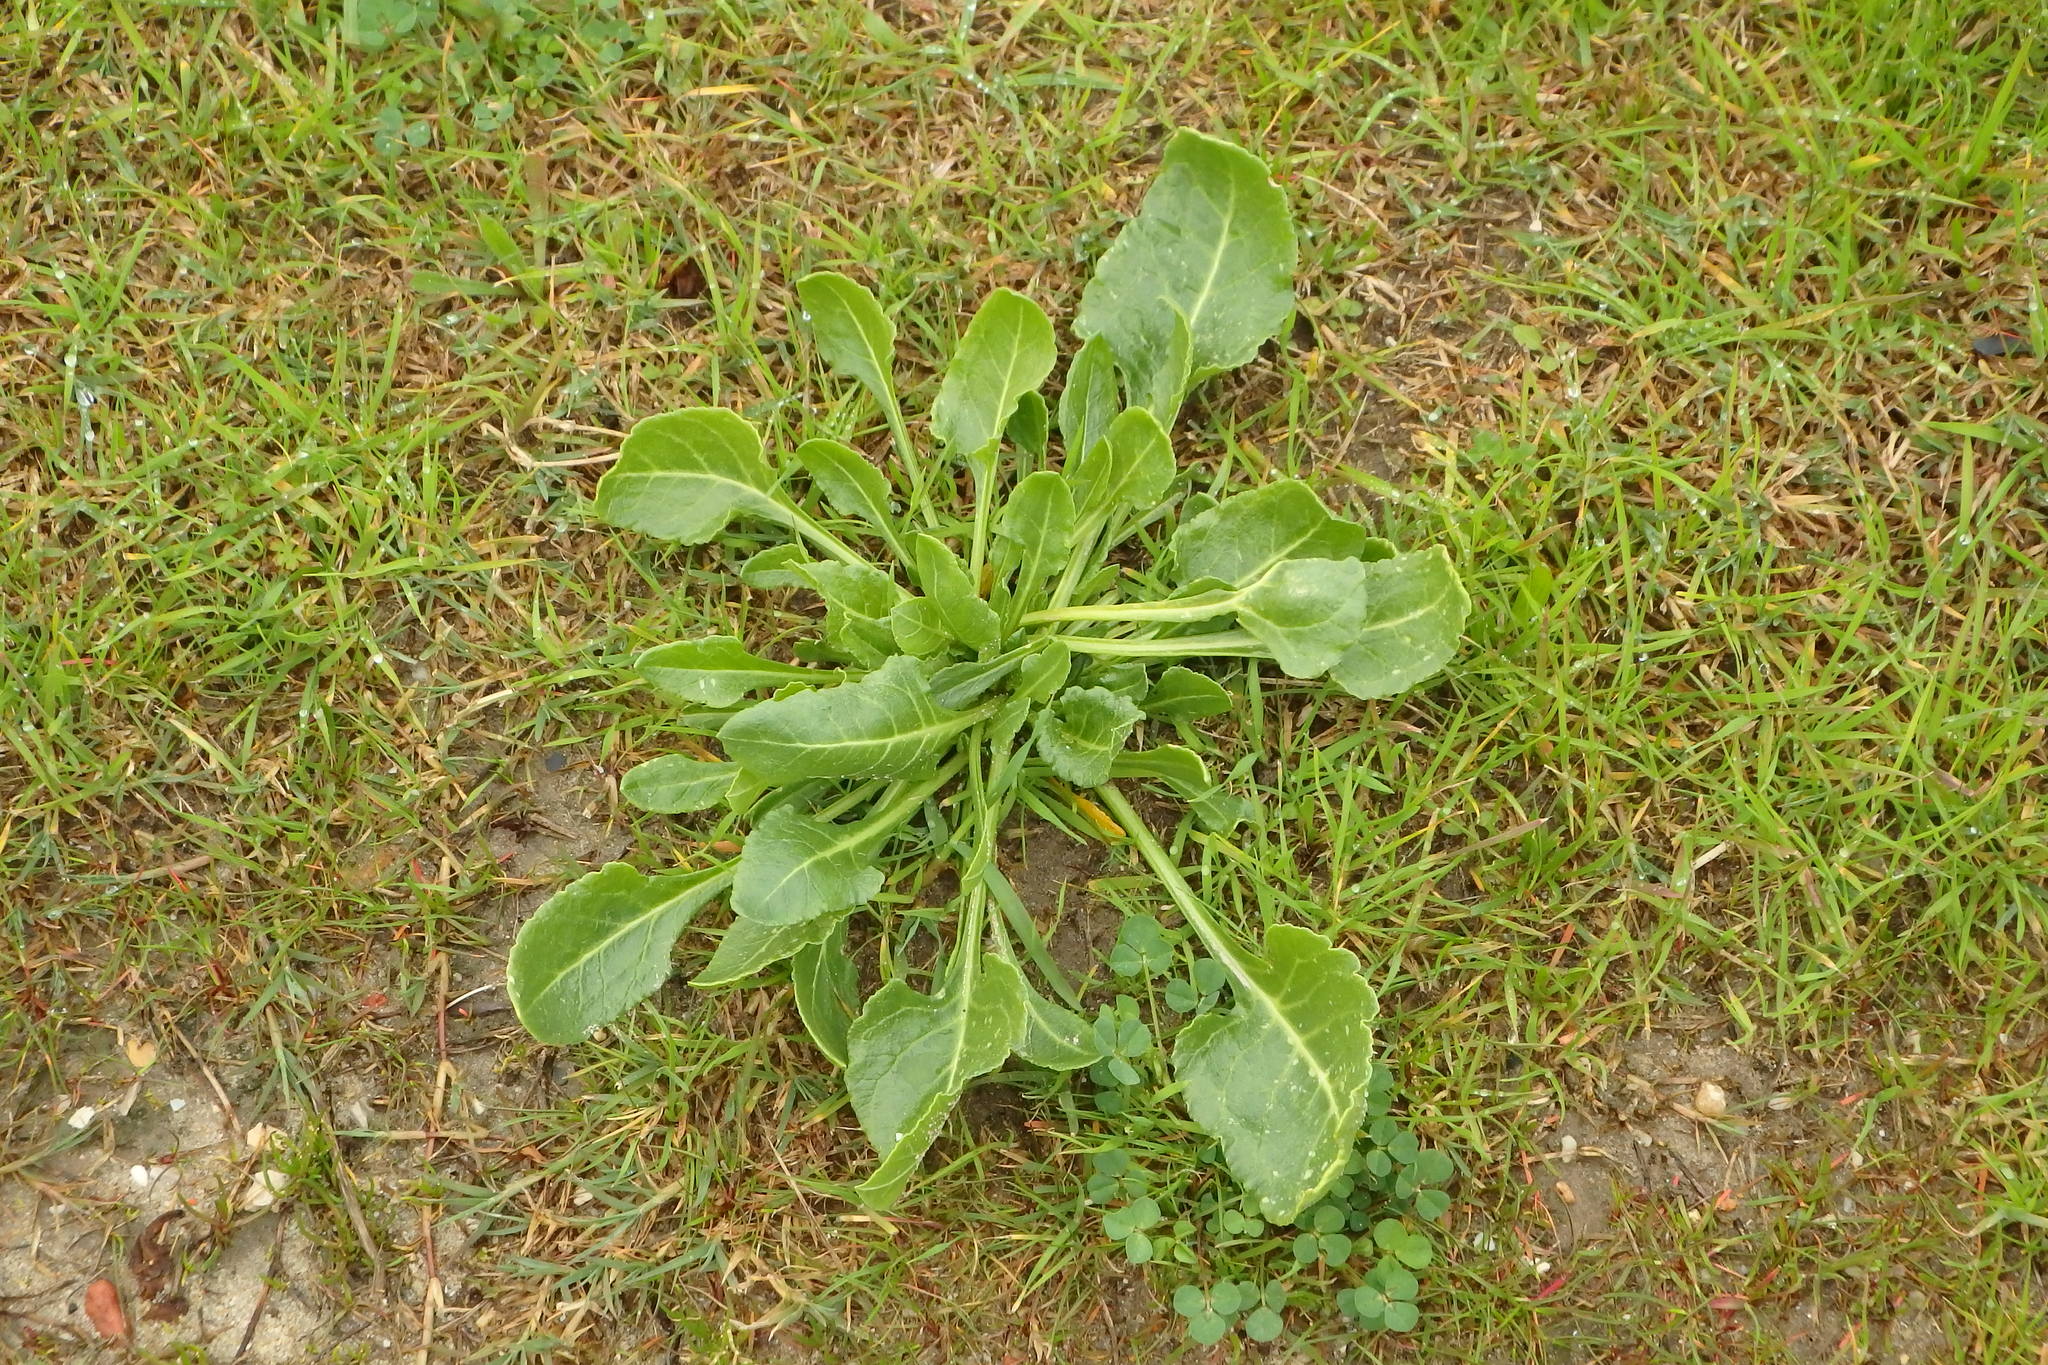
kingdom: Plantae
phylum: Tracheophyta
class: Magnoliopsida
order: Caryophyllales
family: Amaranthaceae
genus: Beta
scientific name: Beta vulgaris
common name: Beet
